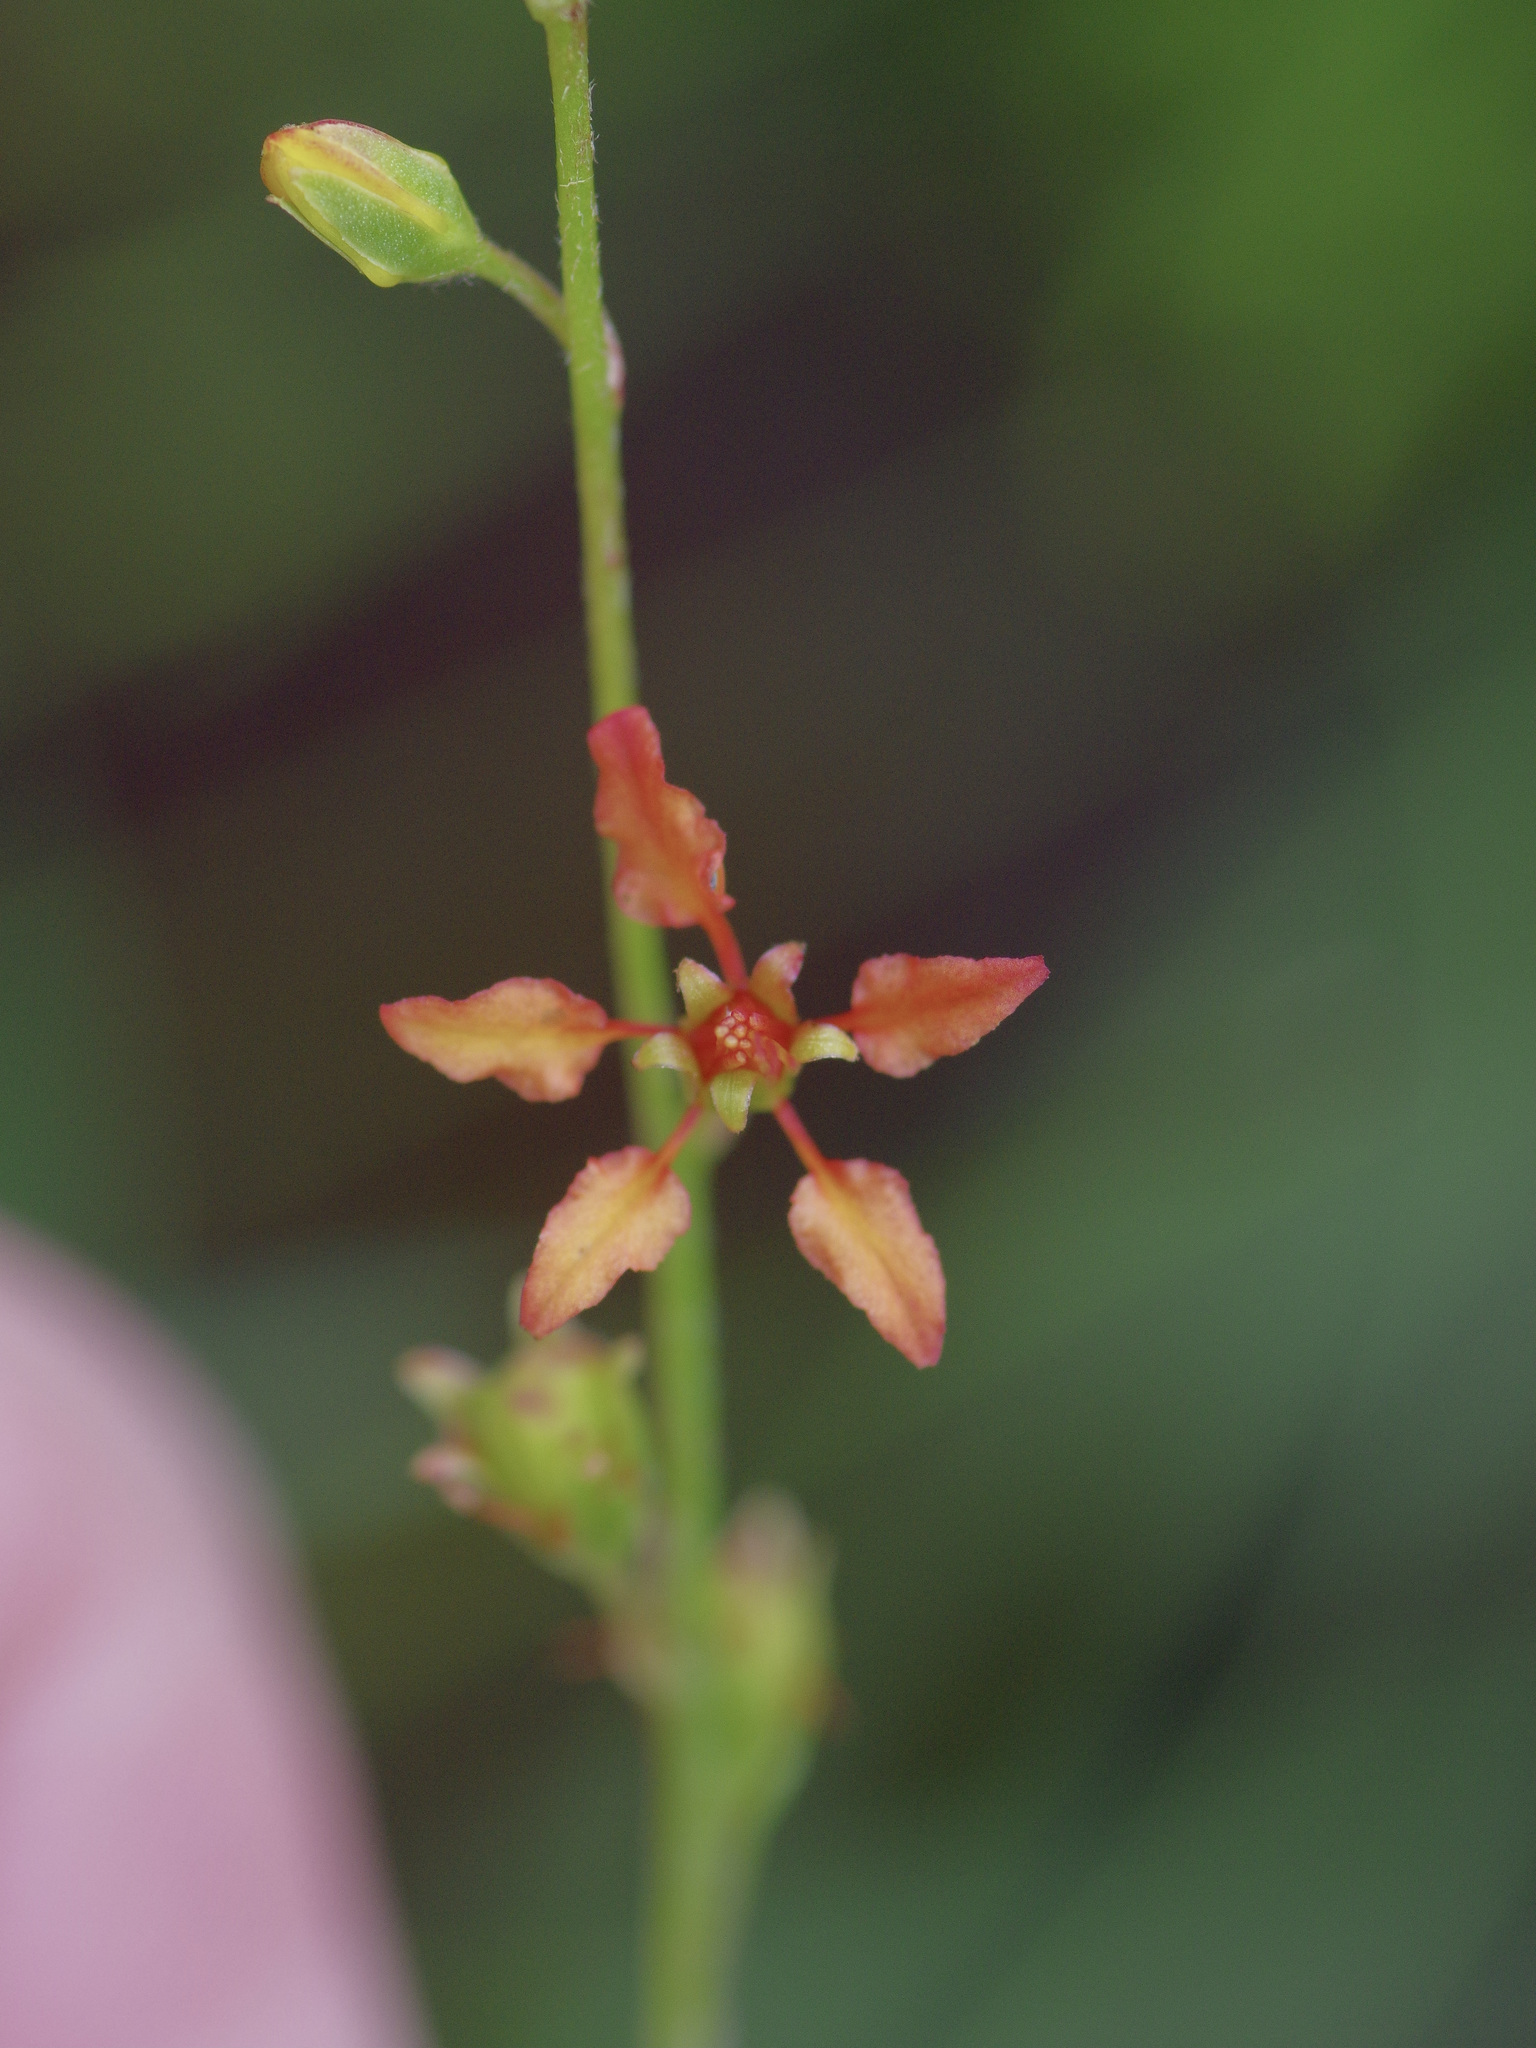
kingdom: Plantae
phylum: Tracheophyta
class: Magnoliopsida
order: Malpighiales
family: Malpighiaceae
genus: Galphimia
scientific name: Galphimia angustifolia
